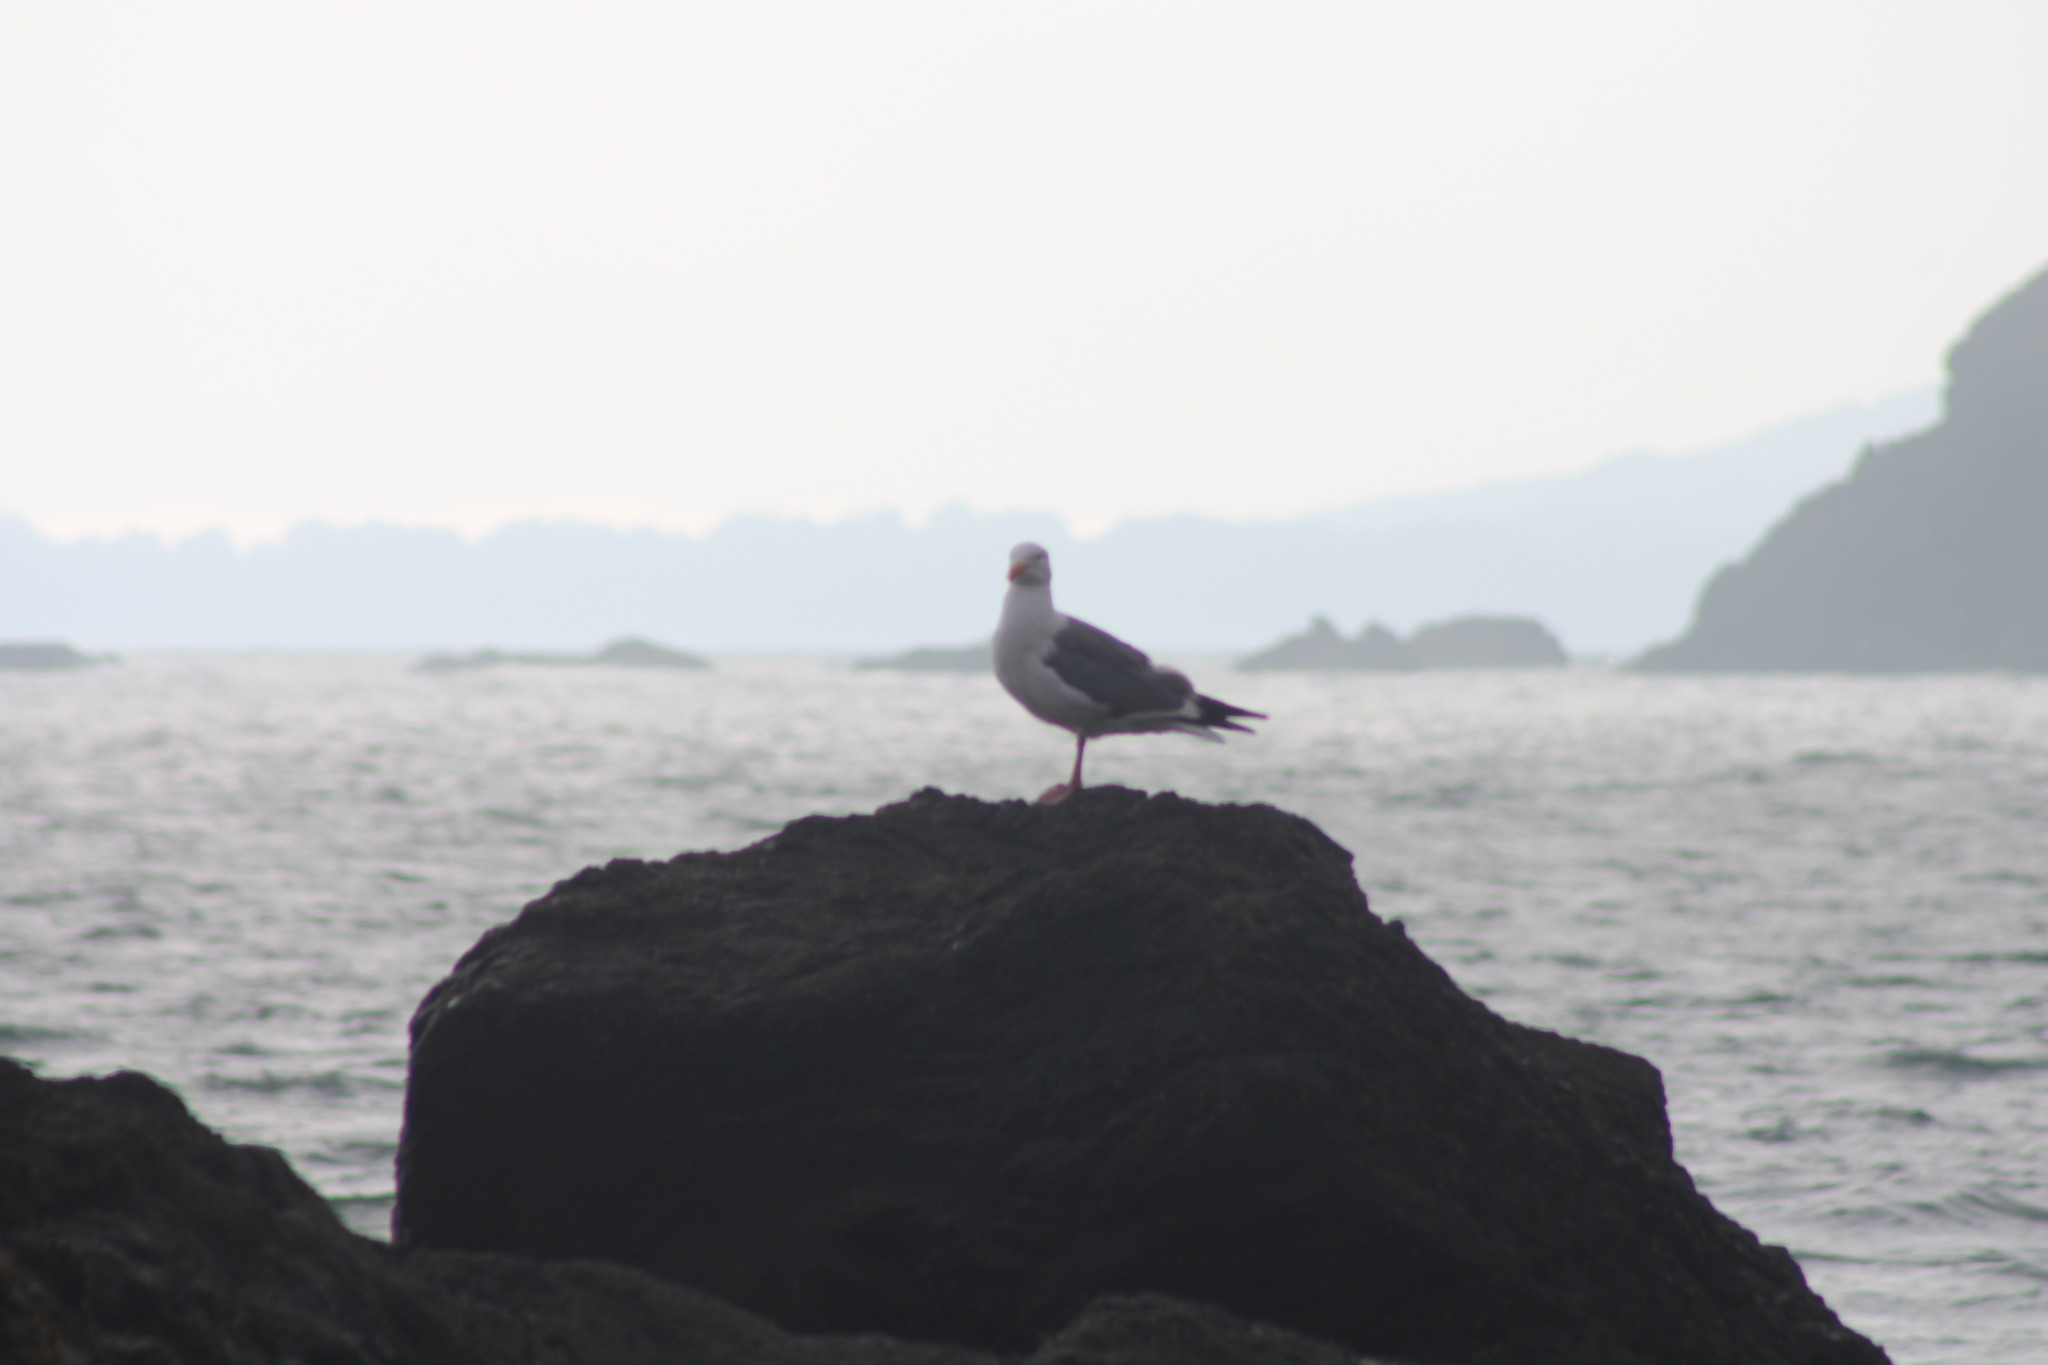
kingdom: Animalia
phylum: Chordata
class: Aves
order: Charadriiformes
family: Laridae
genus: Larus
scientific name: Larus occidentalis
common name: Western gull
